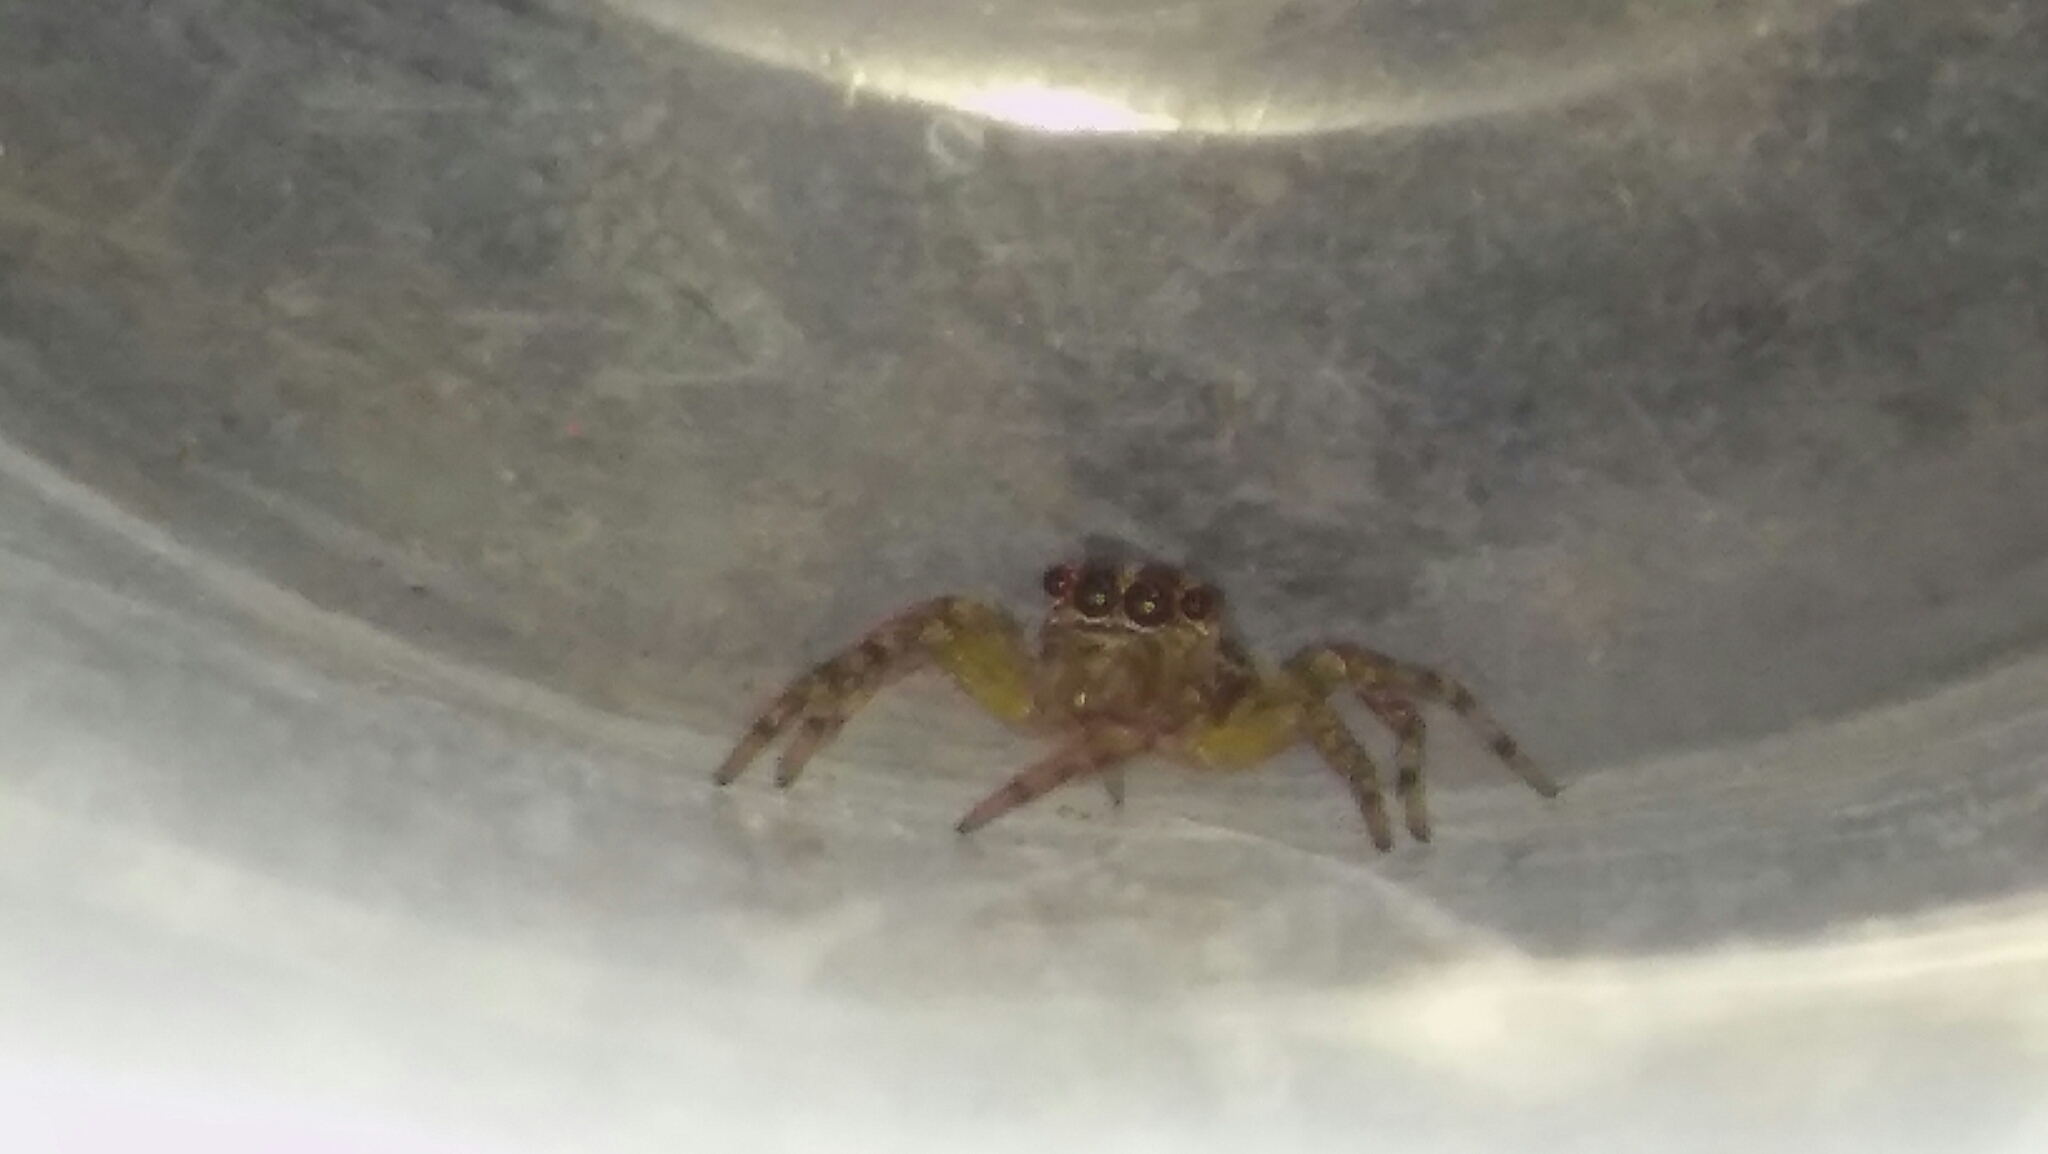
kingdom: Animalia
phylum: Arthropoda
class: Arachnida
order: Araneae
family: Salticidae
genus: Saitis
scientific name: Saitis variegatus
